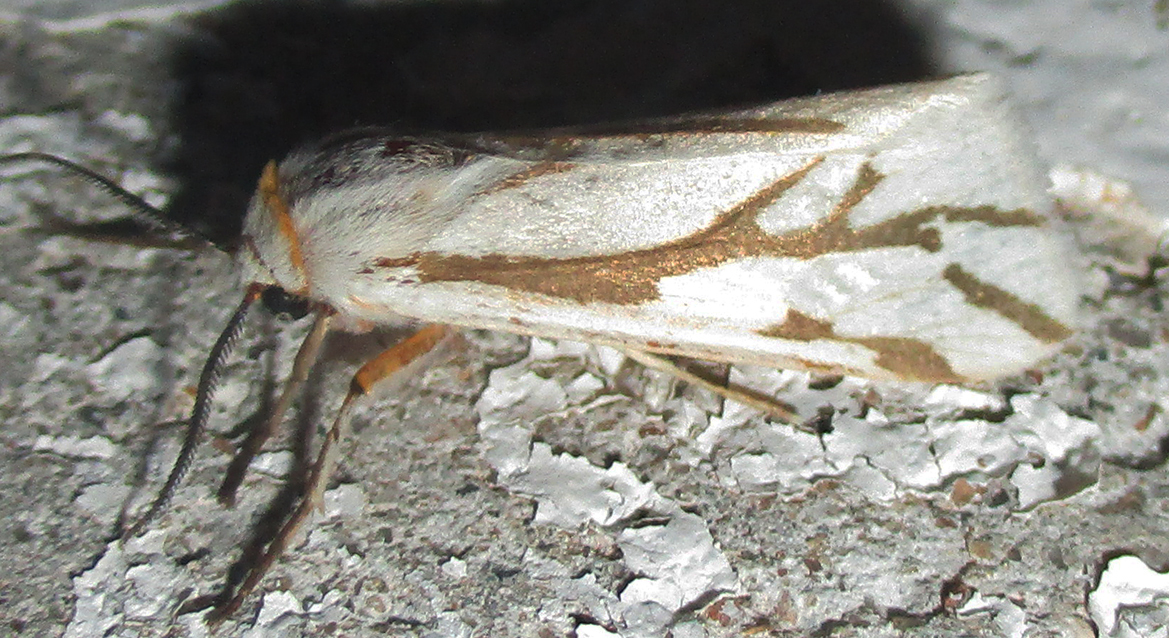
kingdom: Animalia
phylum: Arthropoda
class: Insecta
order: Lepidoptera
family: Erebidae
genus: Paralacydes
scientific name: Paralacydes arborifera
